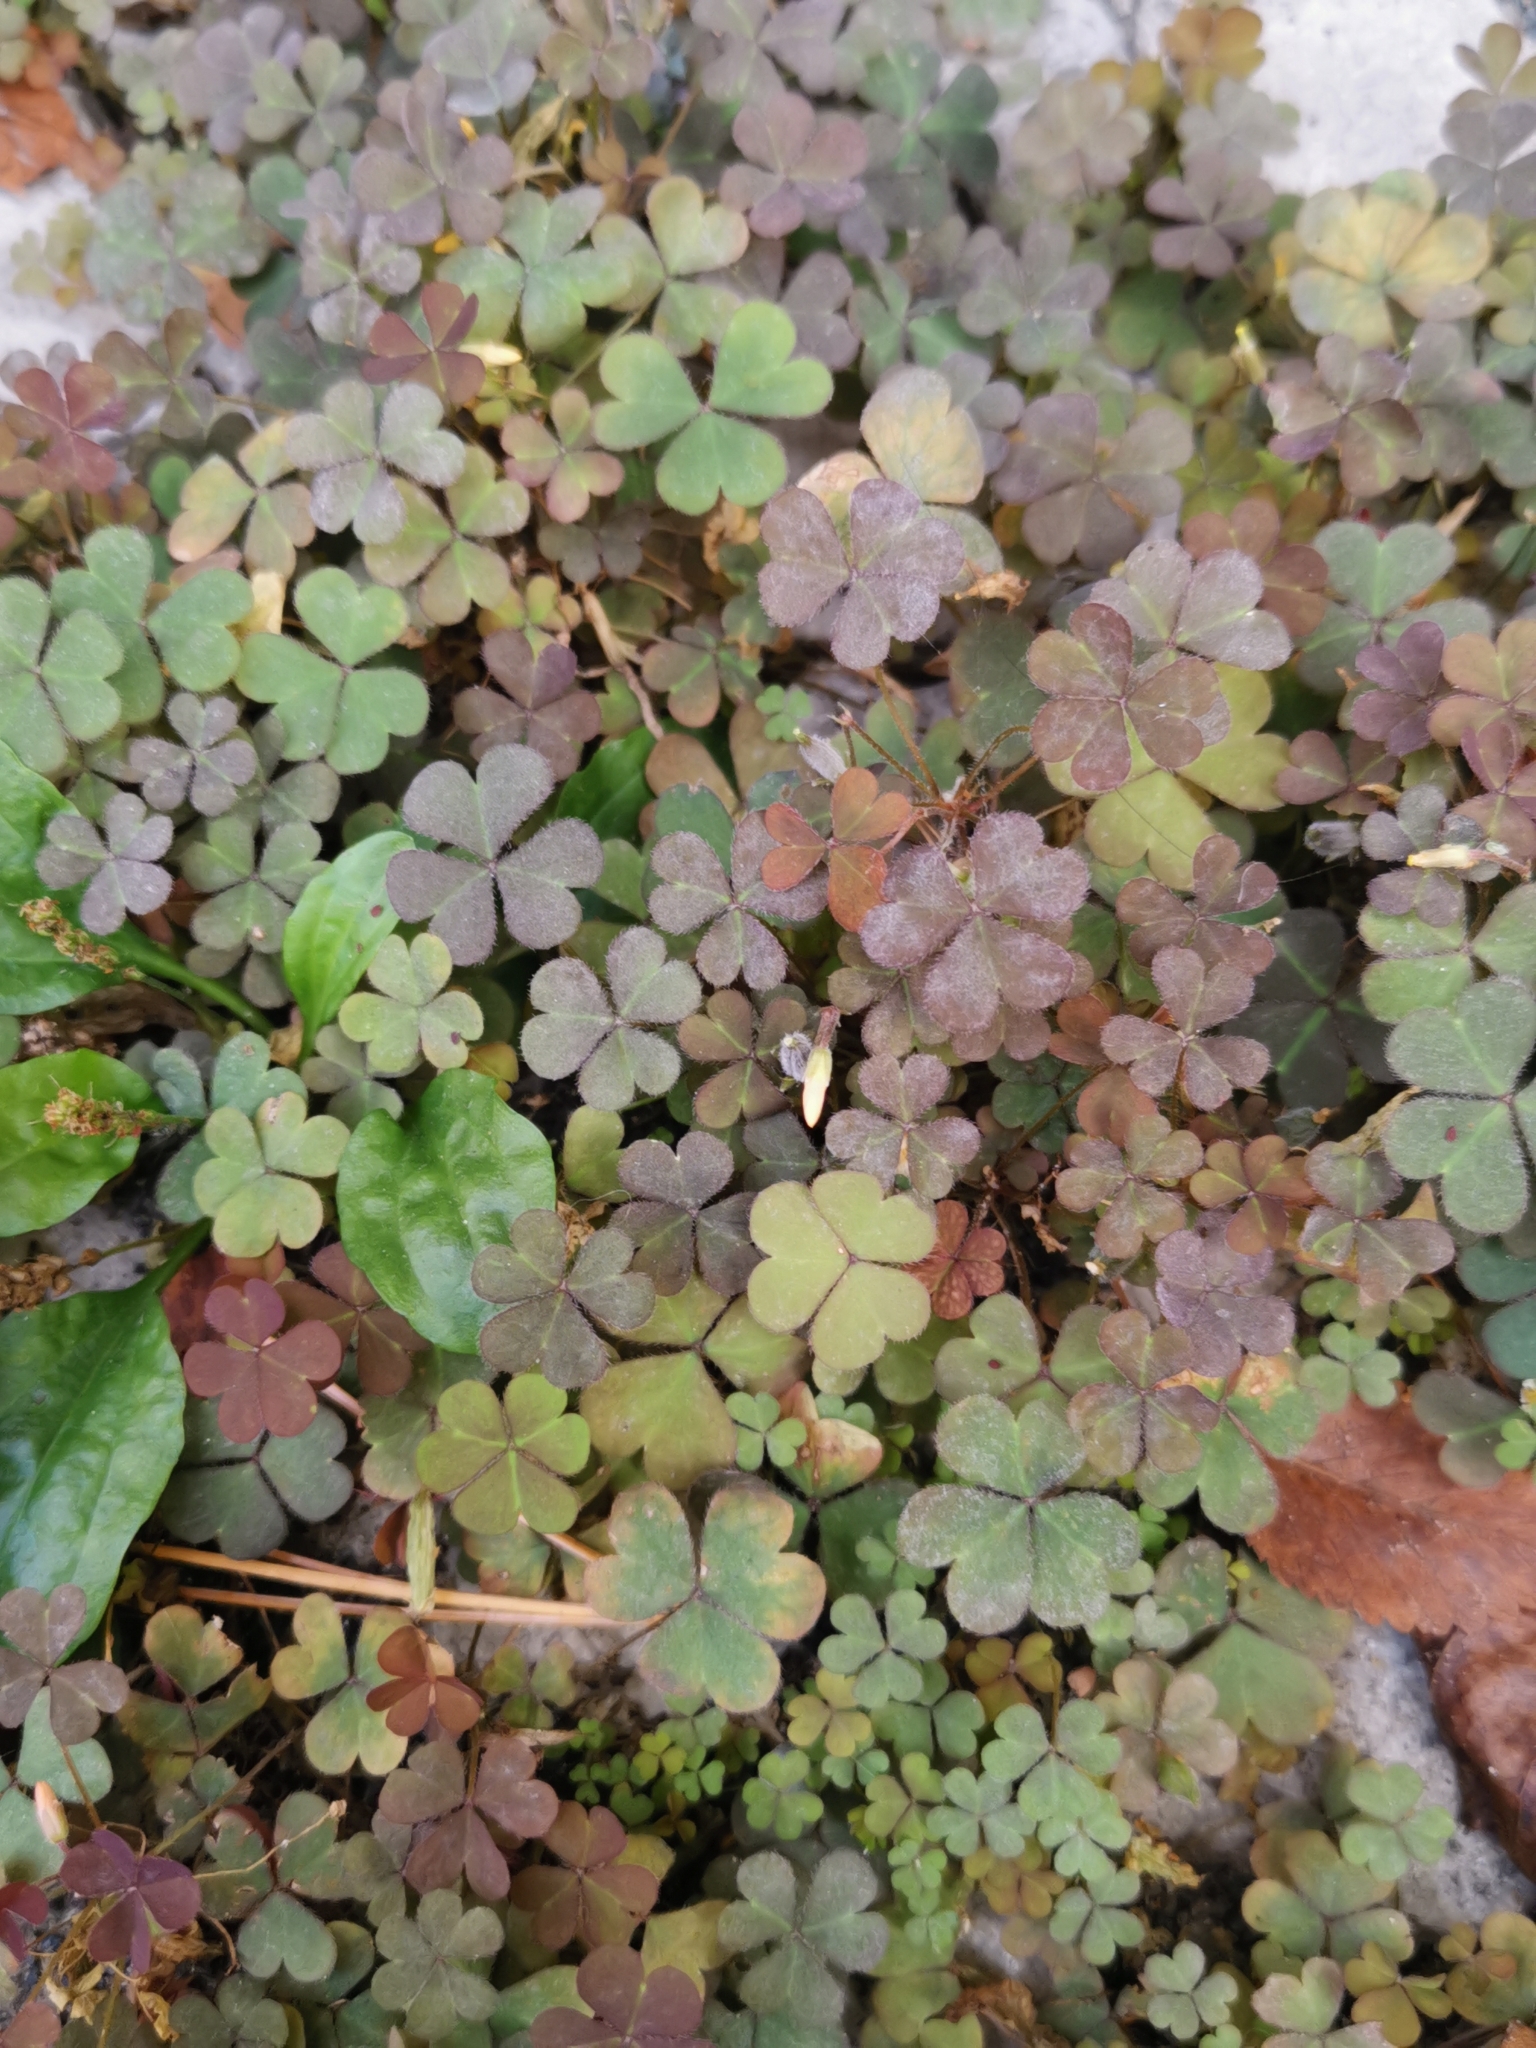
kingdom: Plantae
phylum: Tracheophyta
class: Magnoliopsida
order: Oxalidales
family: Oxalidaceae
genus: Oxalis
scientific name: Oxalis corniculata
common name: Procumbent yellow-sorrel
